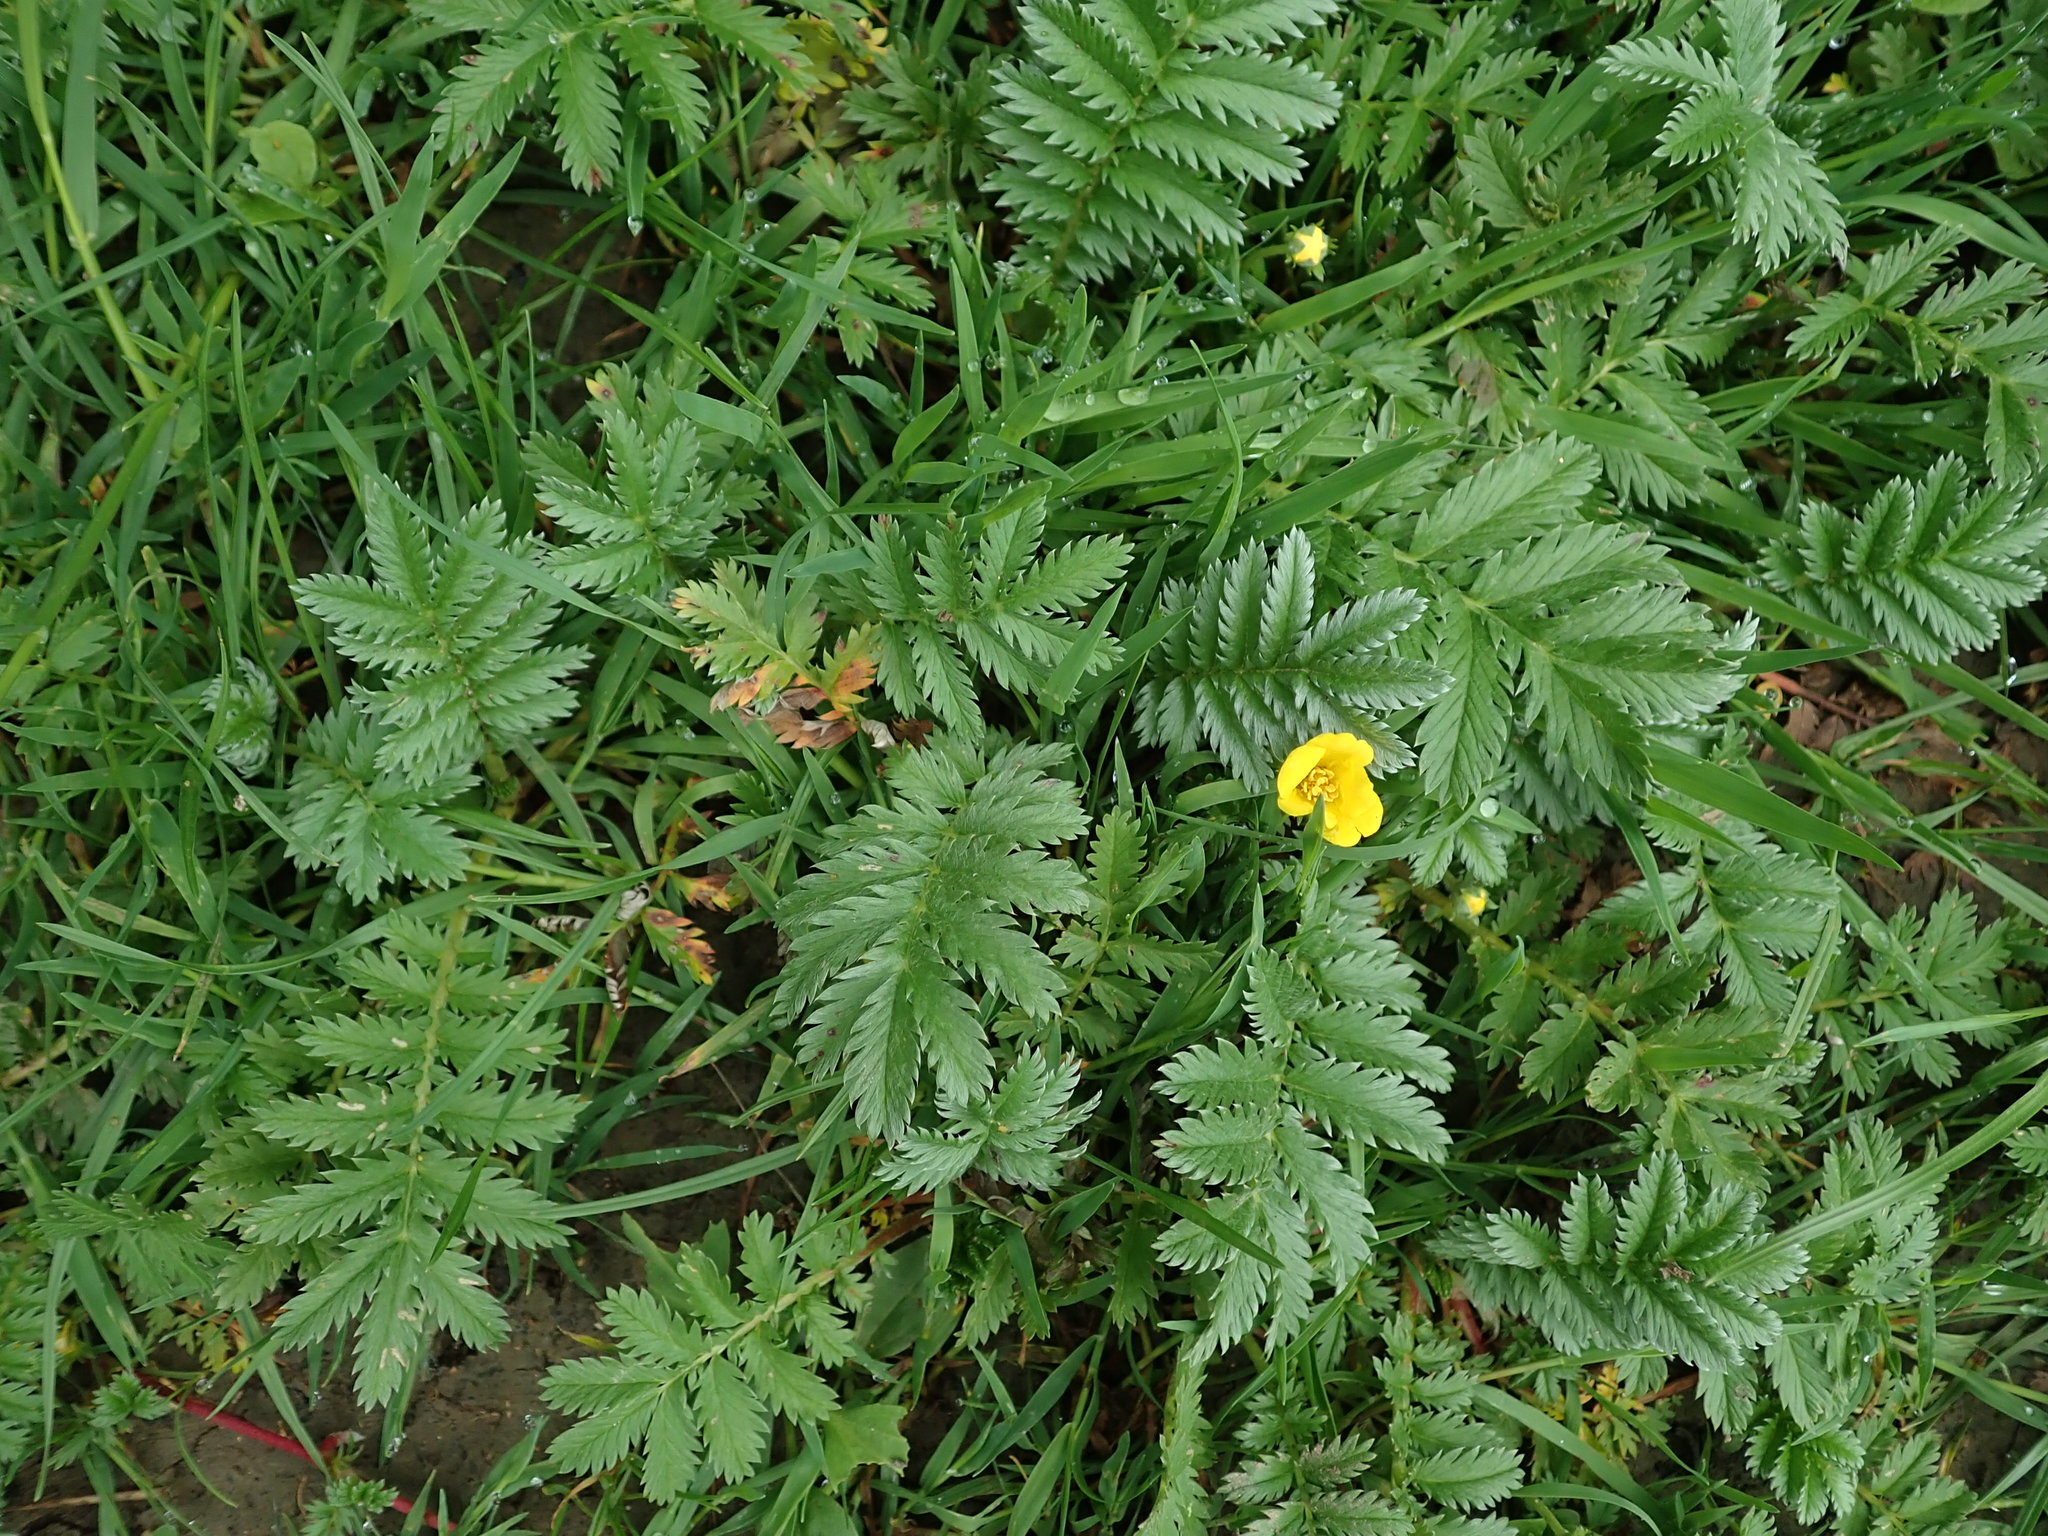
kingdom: Plantae
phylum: Tracheophyta
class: Magnoliopsida
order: Rosales
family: Rosaceae
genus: Argentina
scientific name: Argentina anserina
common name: Common silverweed
